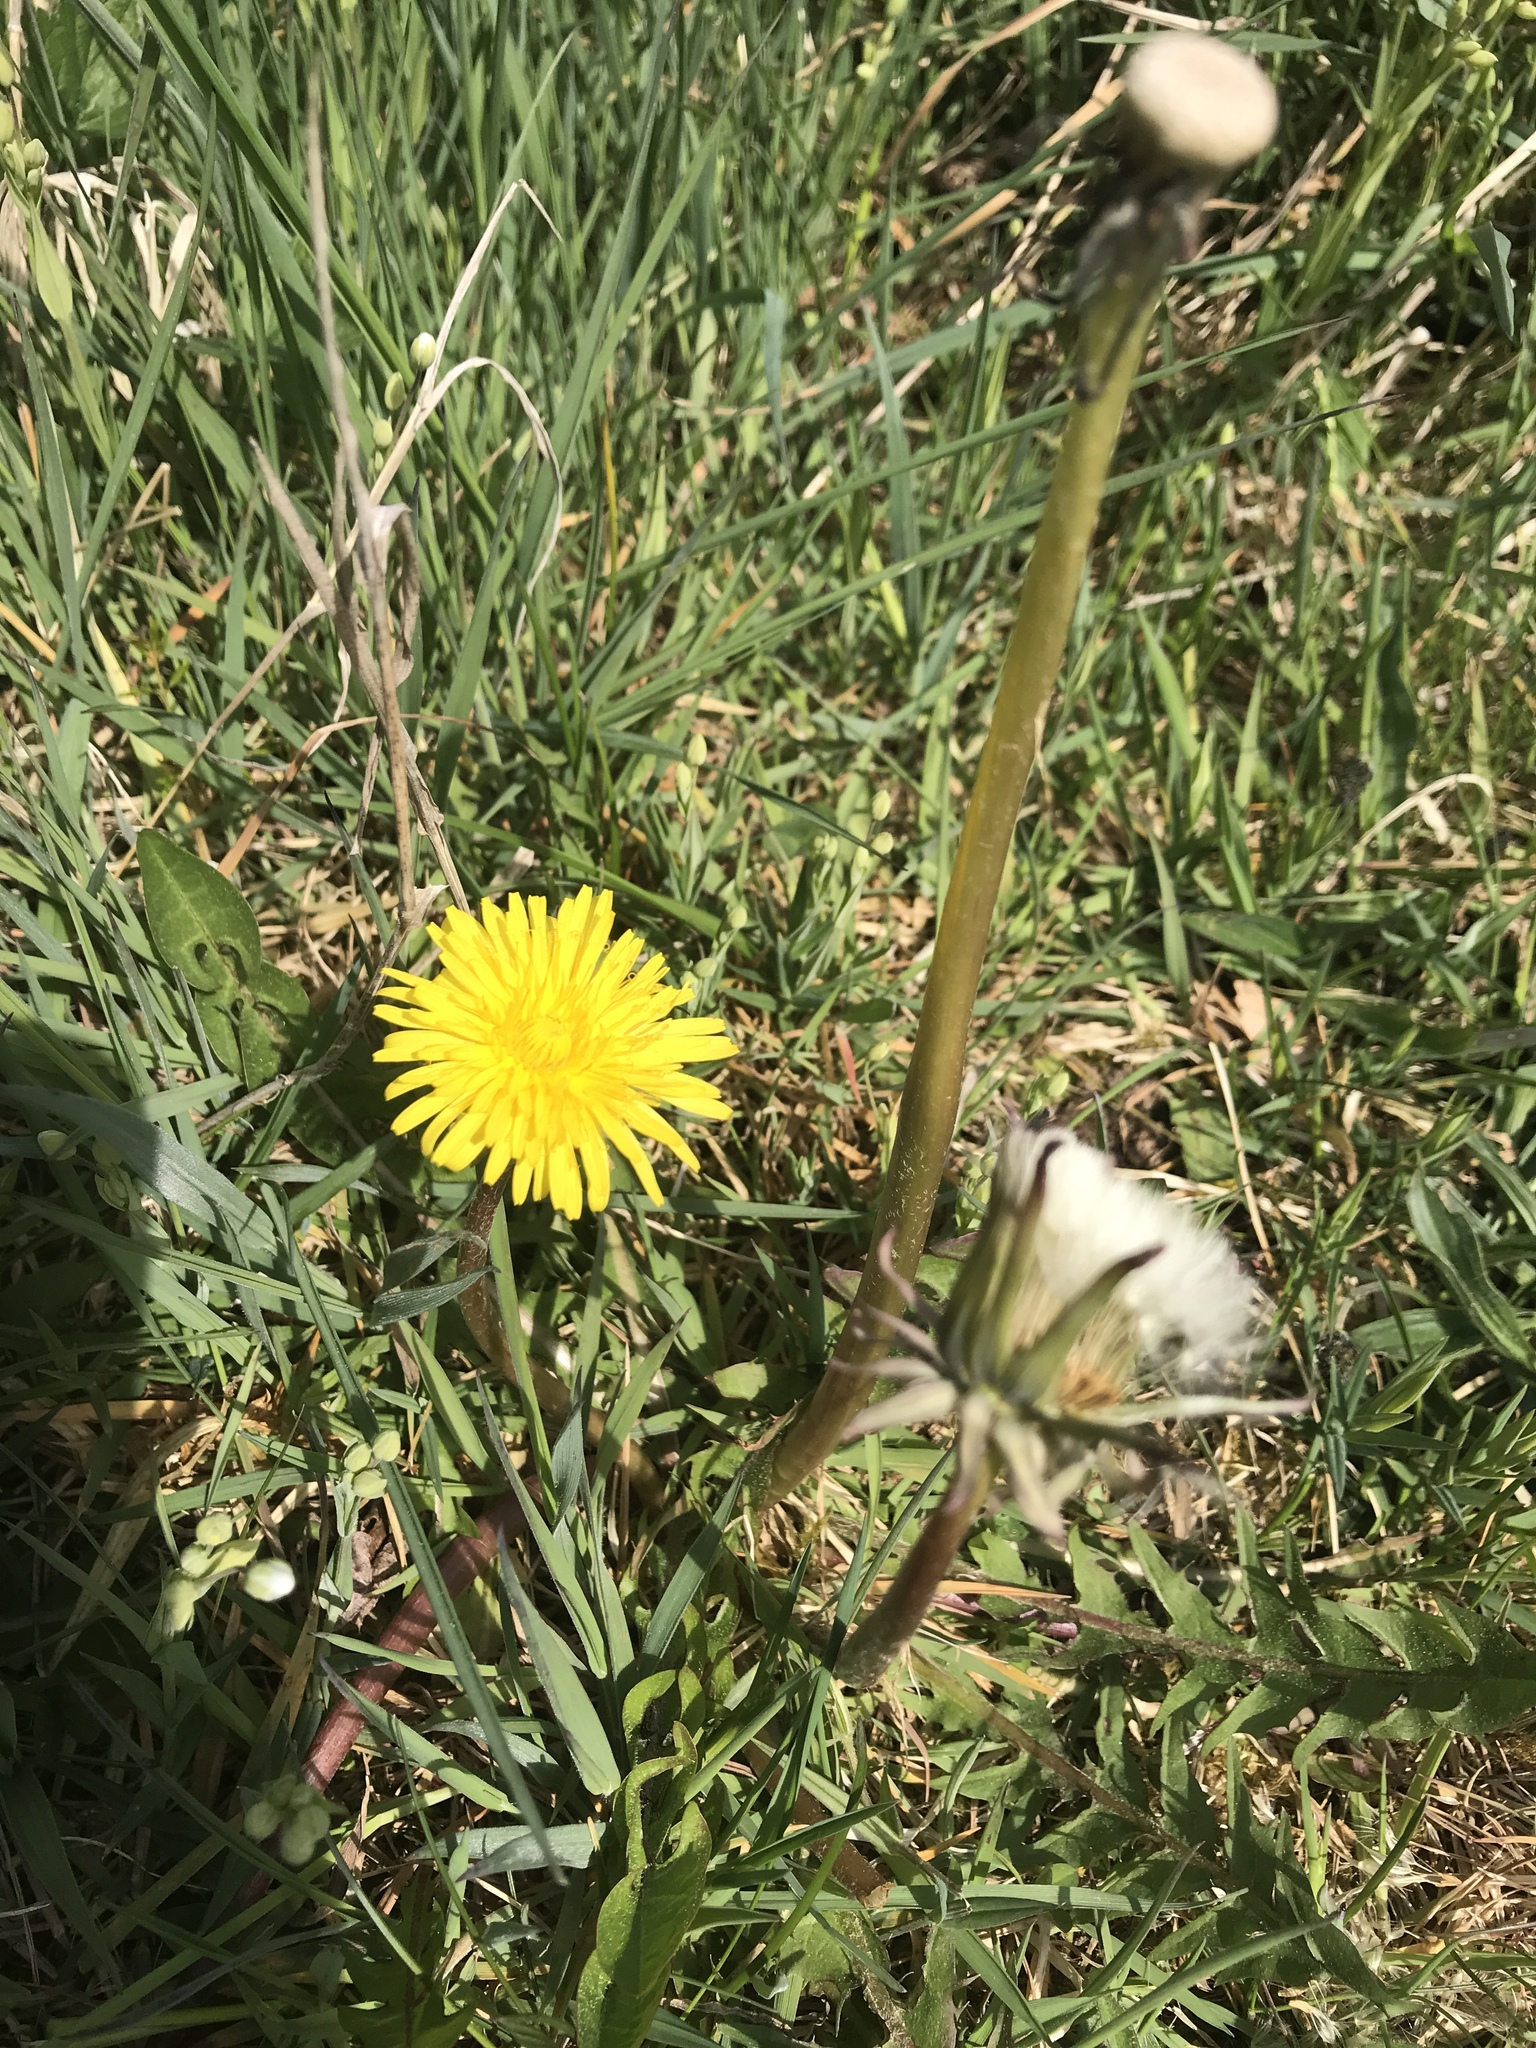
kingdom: Plantae
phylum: Tracheophyta
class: Magnoliopsida
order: Asterales
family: Asteraceae
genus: Taraxacum
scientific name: Taraxacum officinale
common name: Common dandelion
